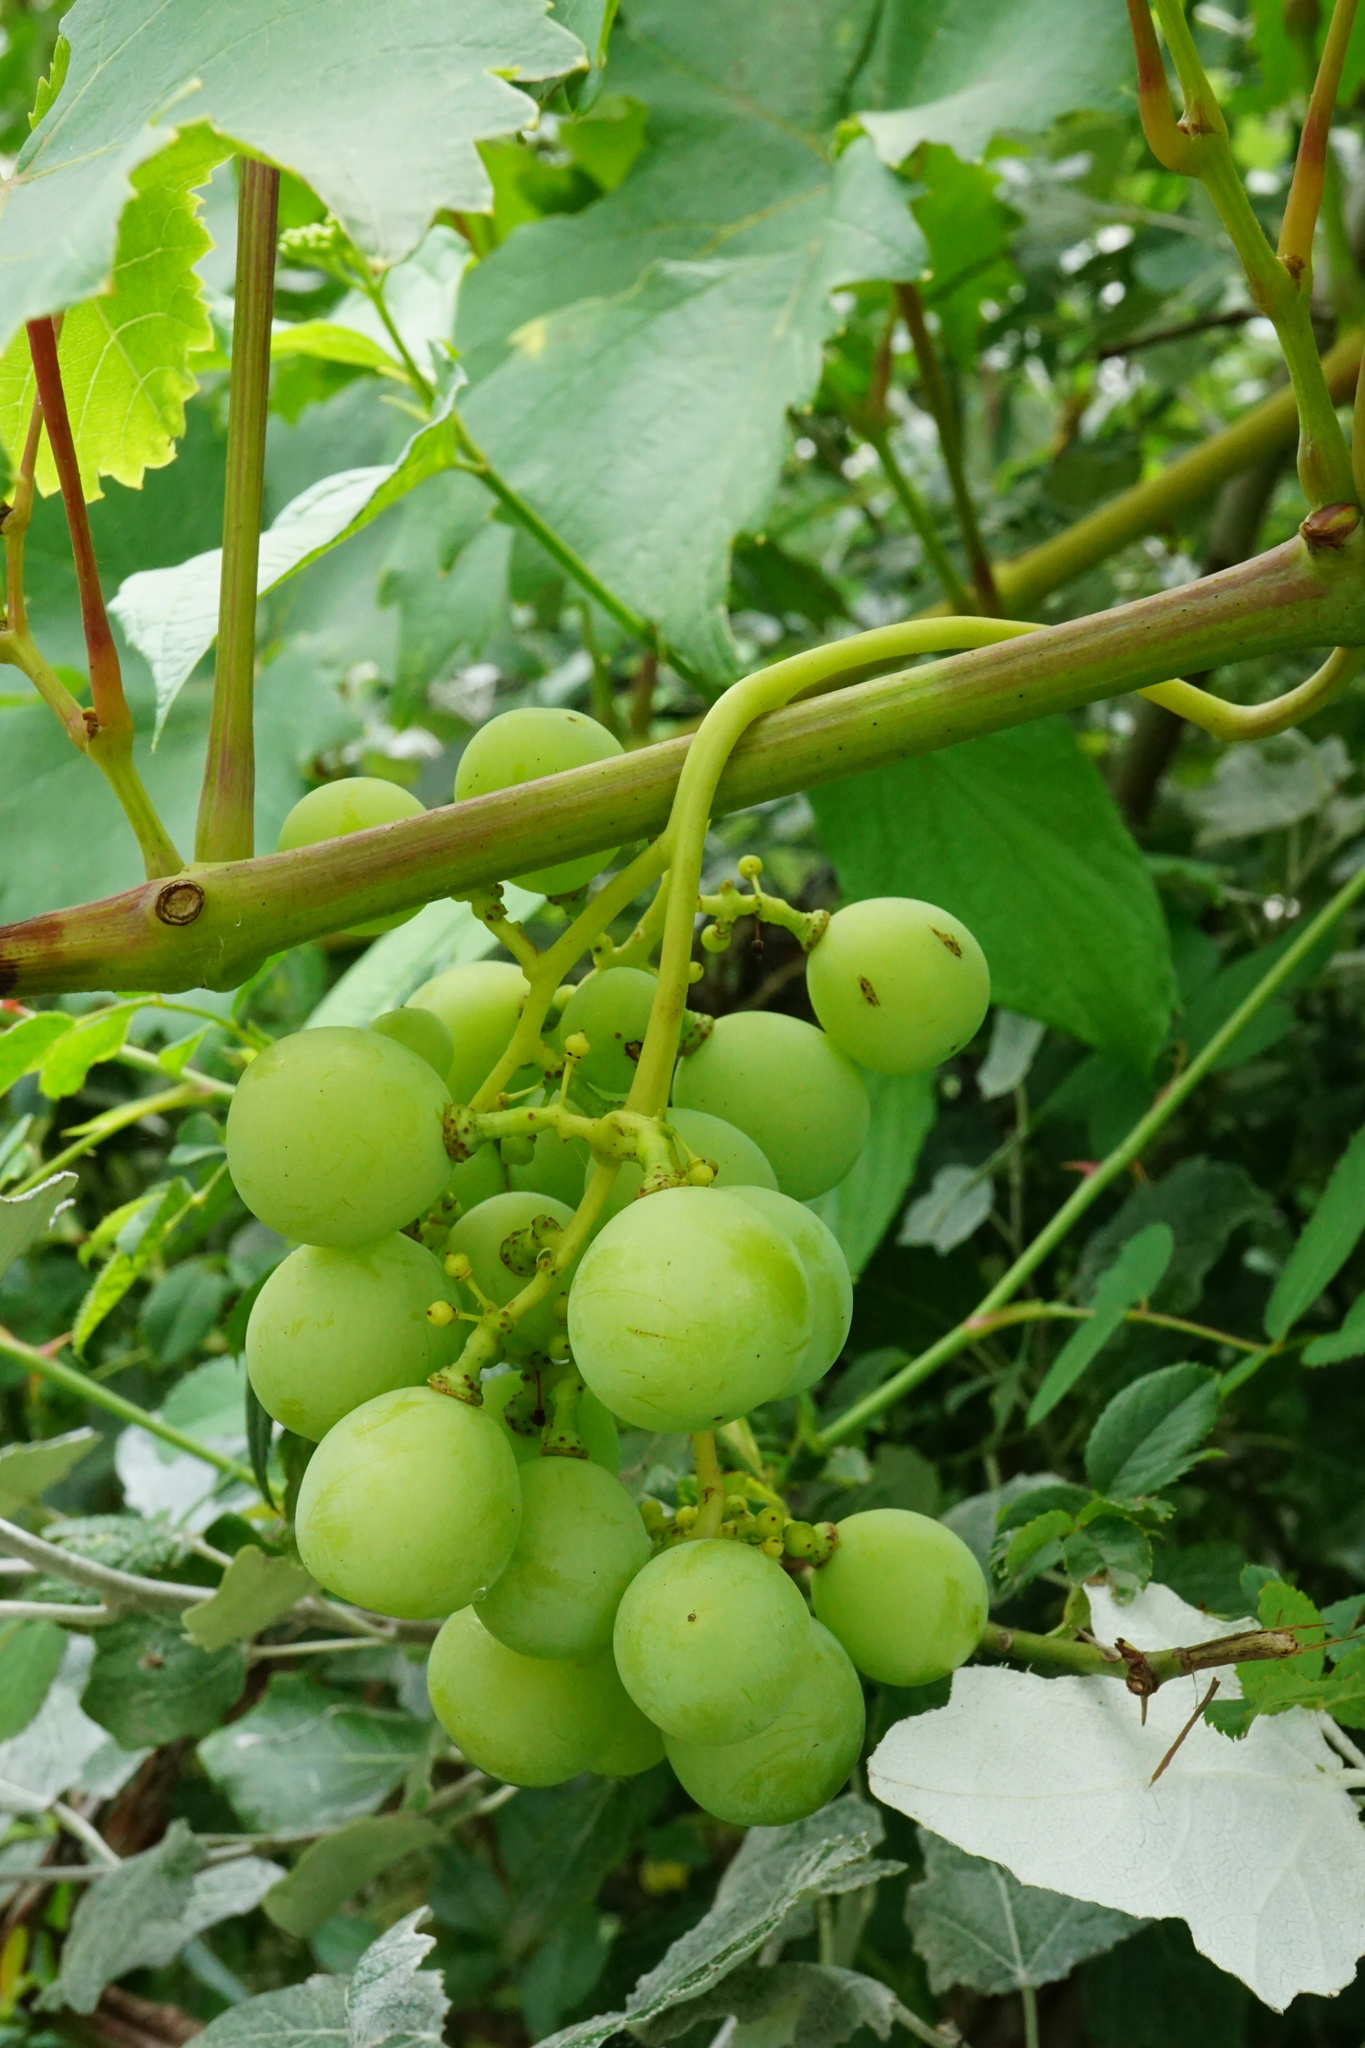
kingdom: Plantae
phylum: Tracheophyta
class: Magnoliopsida
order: Vitales
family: Vitaceae
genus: Vitis
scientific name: Vitis vinifera
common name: Grape-vine
